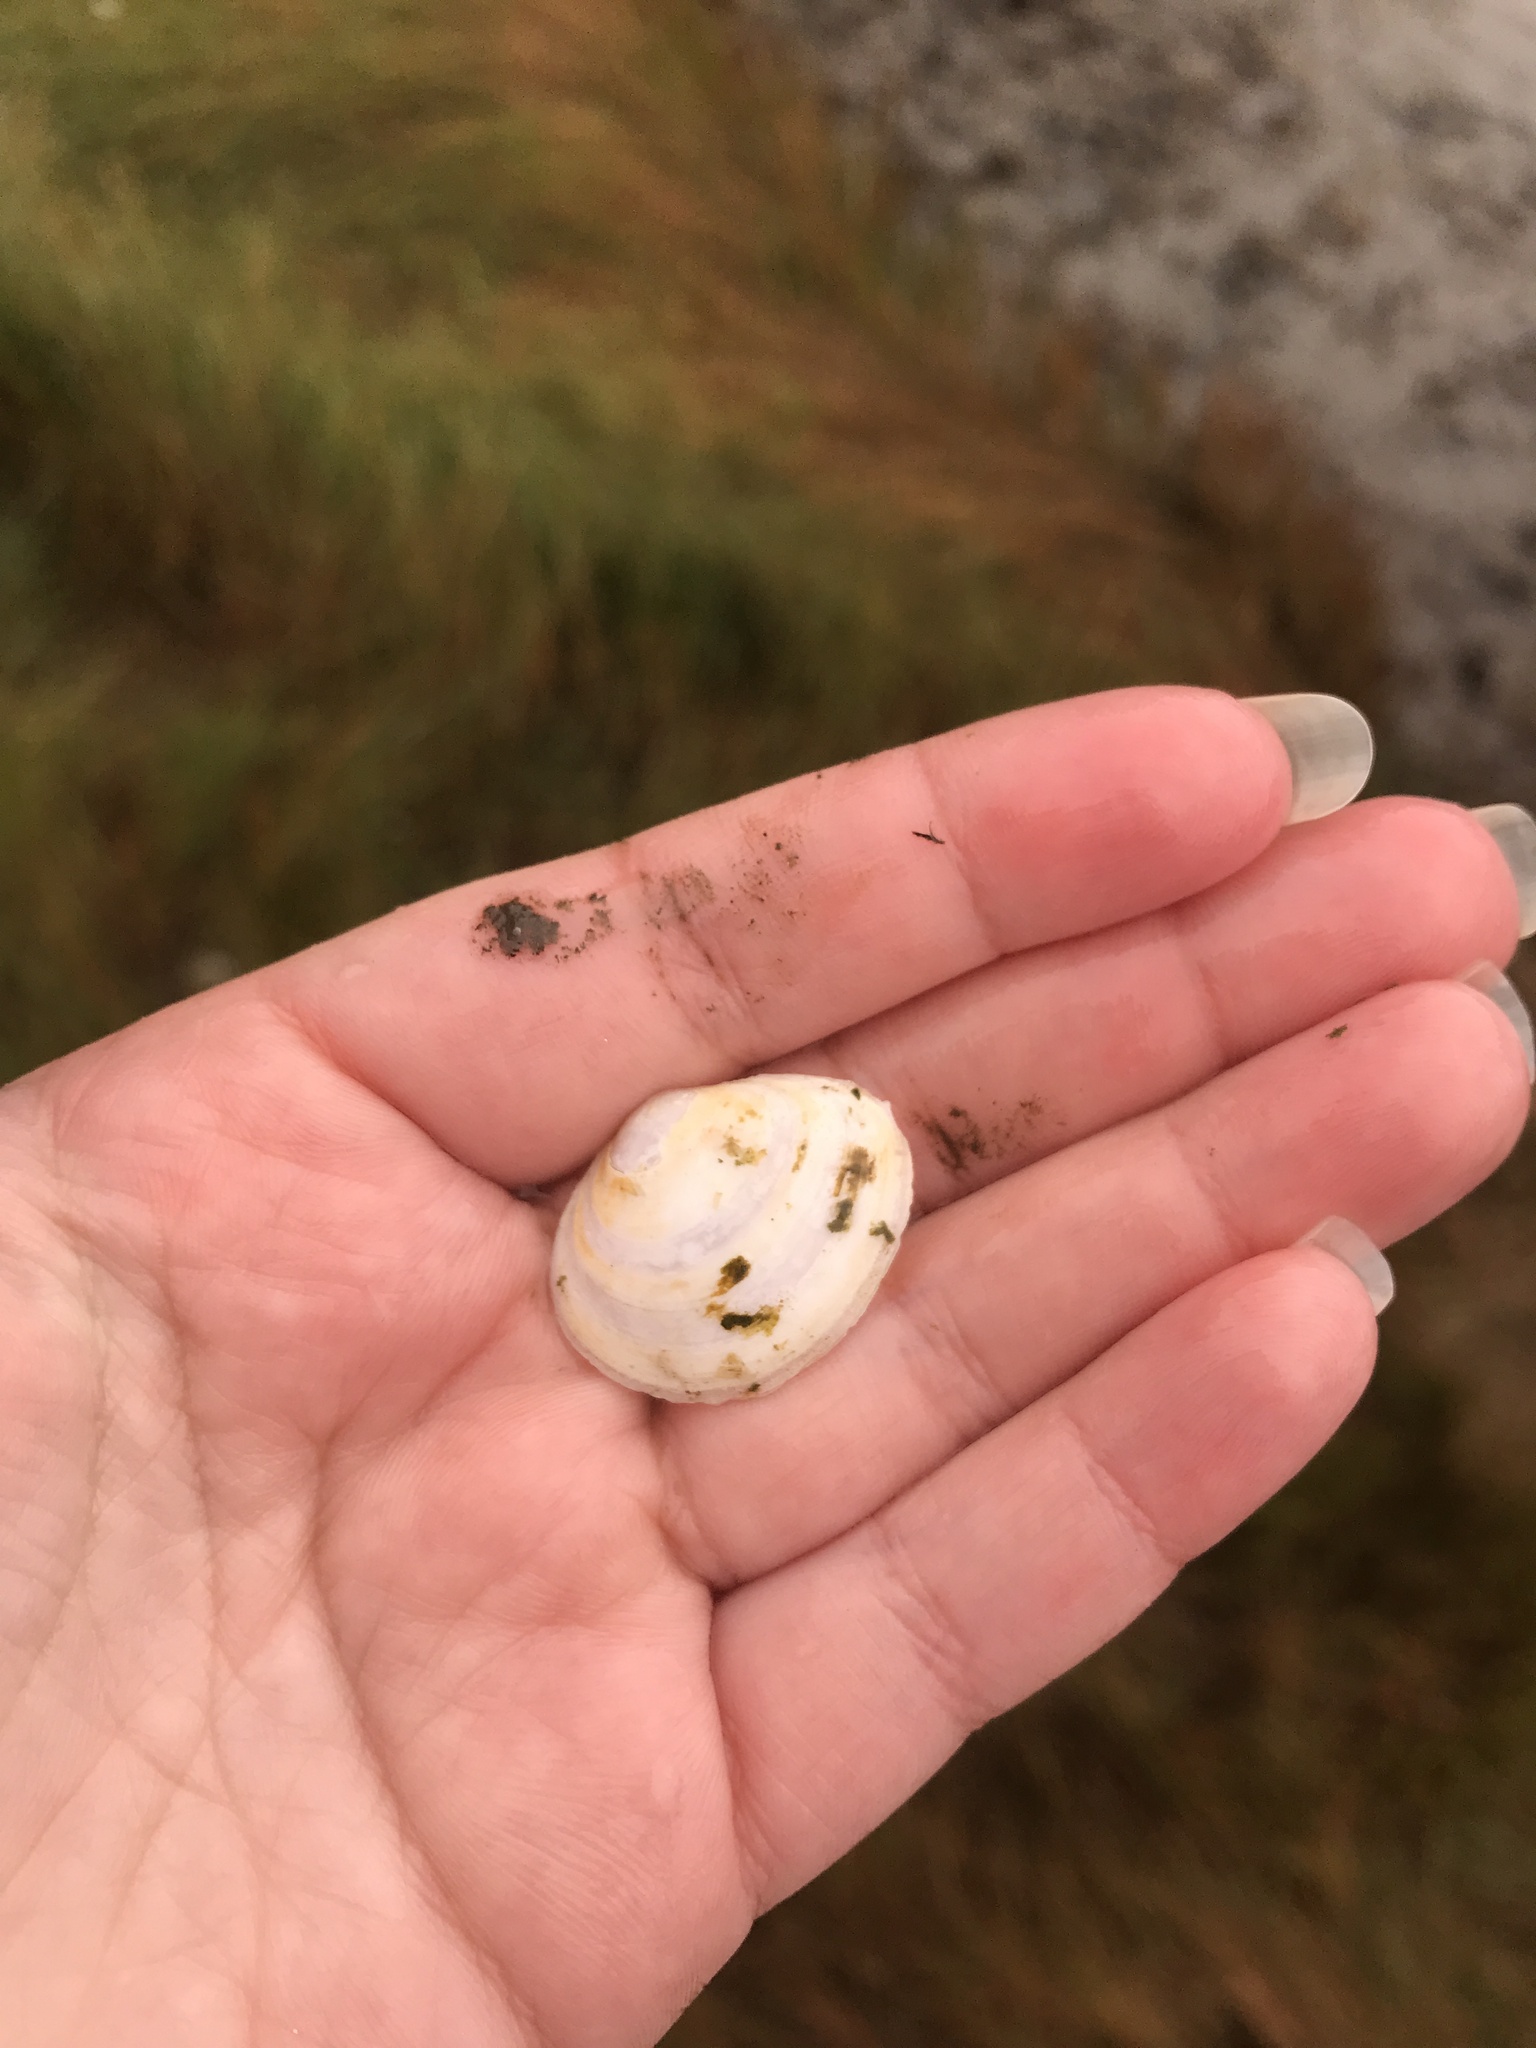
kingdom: Animalia
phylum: Mollusca
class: Bivalvia
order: Cardiida
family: Tellinidae
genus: Macoma
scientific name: Macoma petalum
